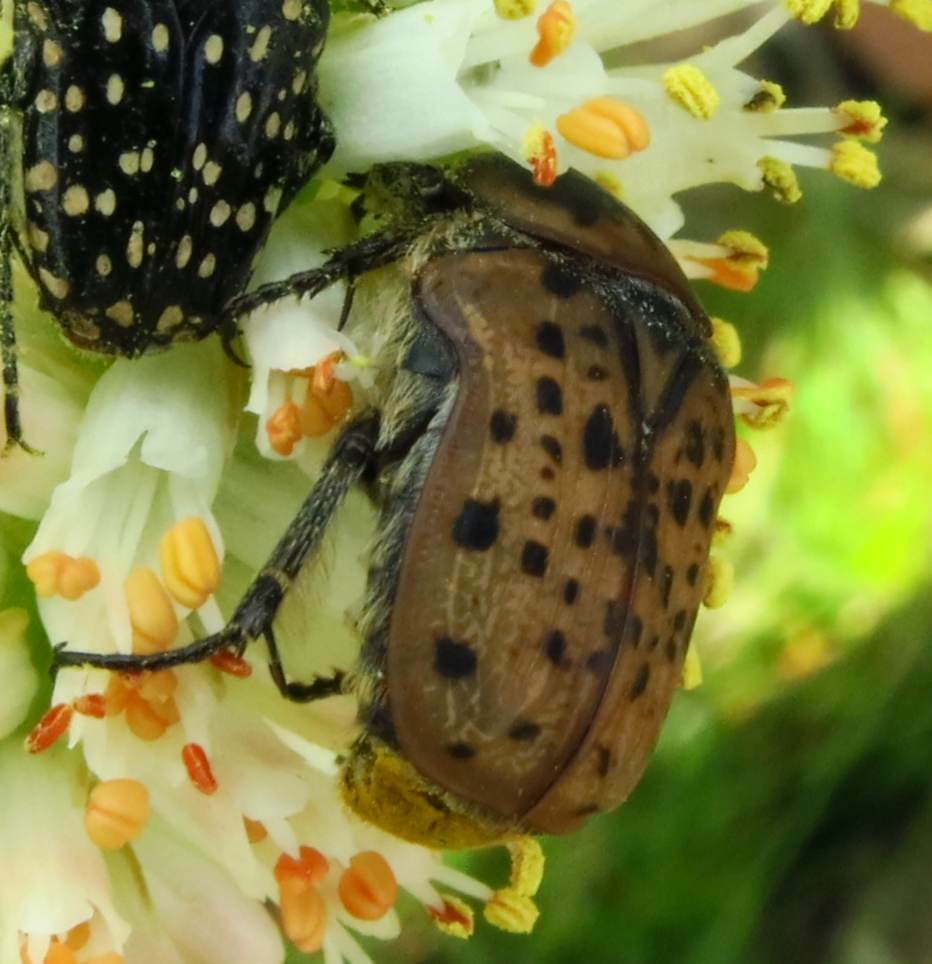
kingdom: Animalia
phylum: Arthropoda
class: Insecta
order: Coleoptera
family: Scarabaeidae
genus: Atrichelaphinis
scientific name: Atrichelaphinis tigrina
